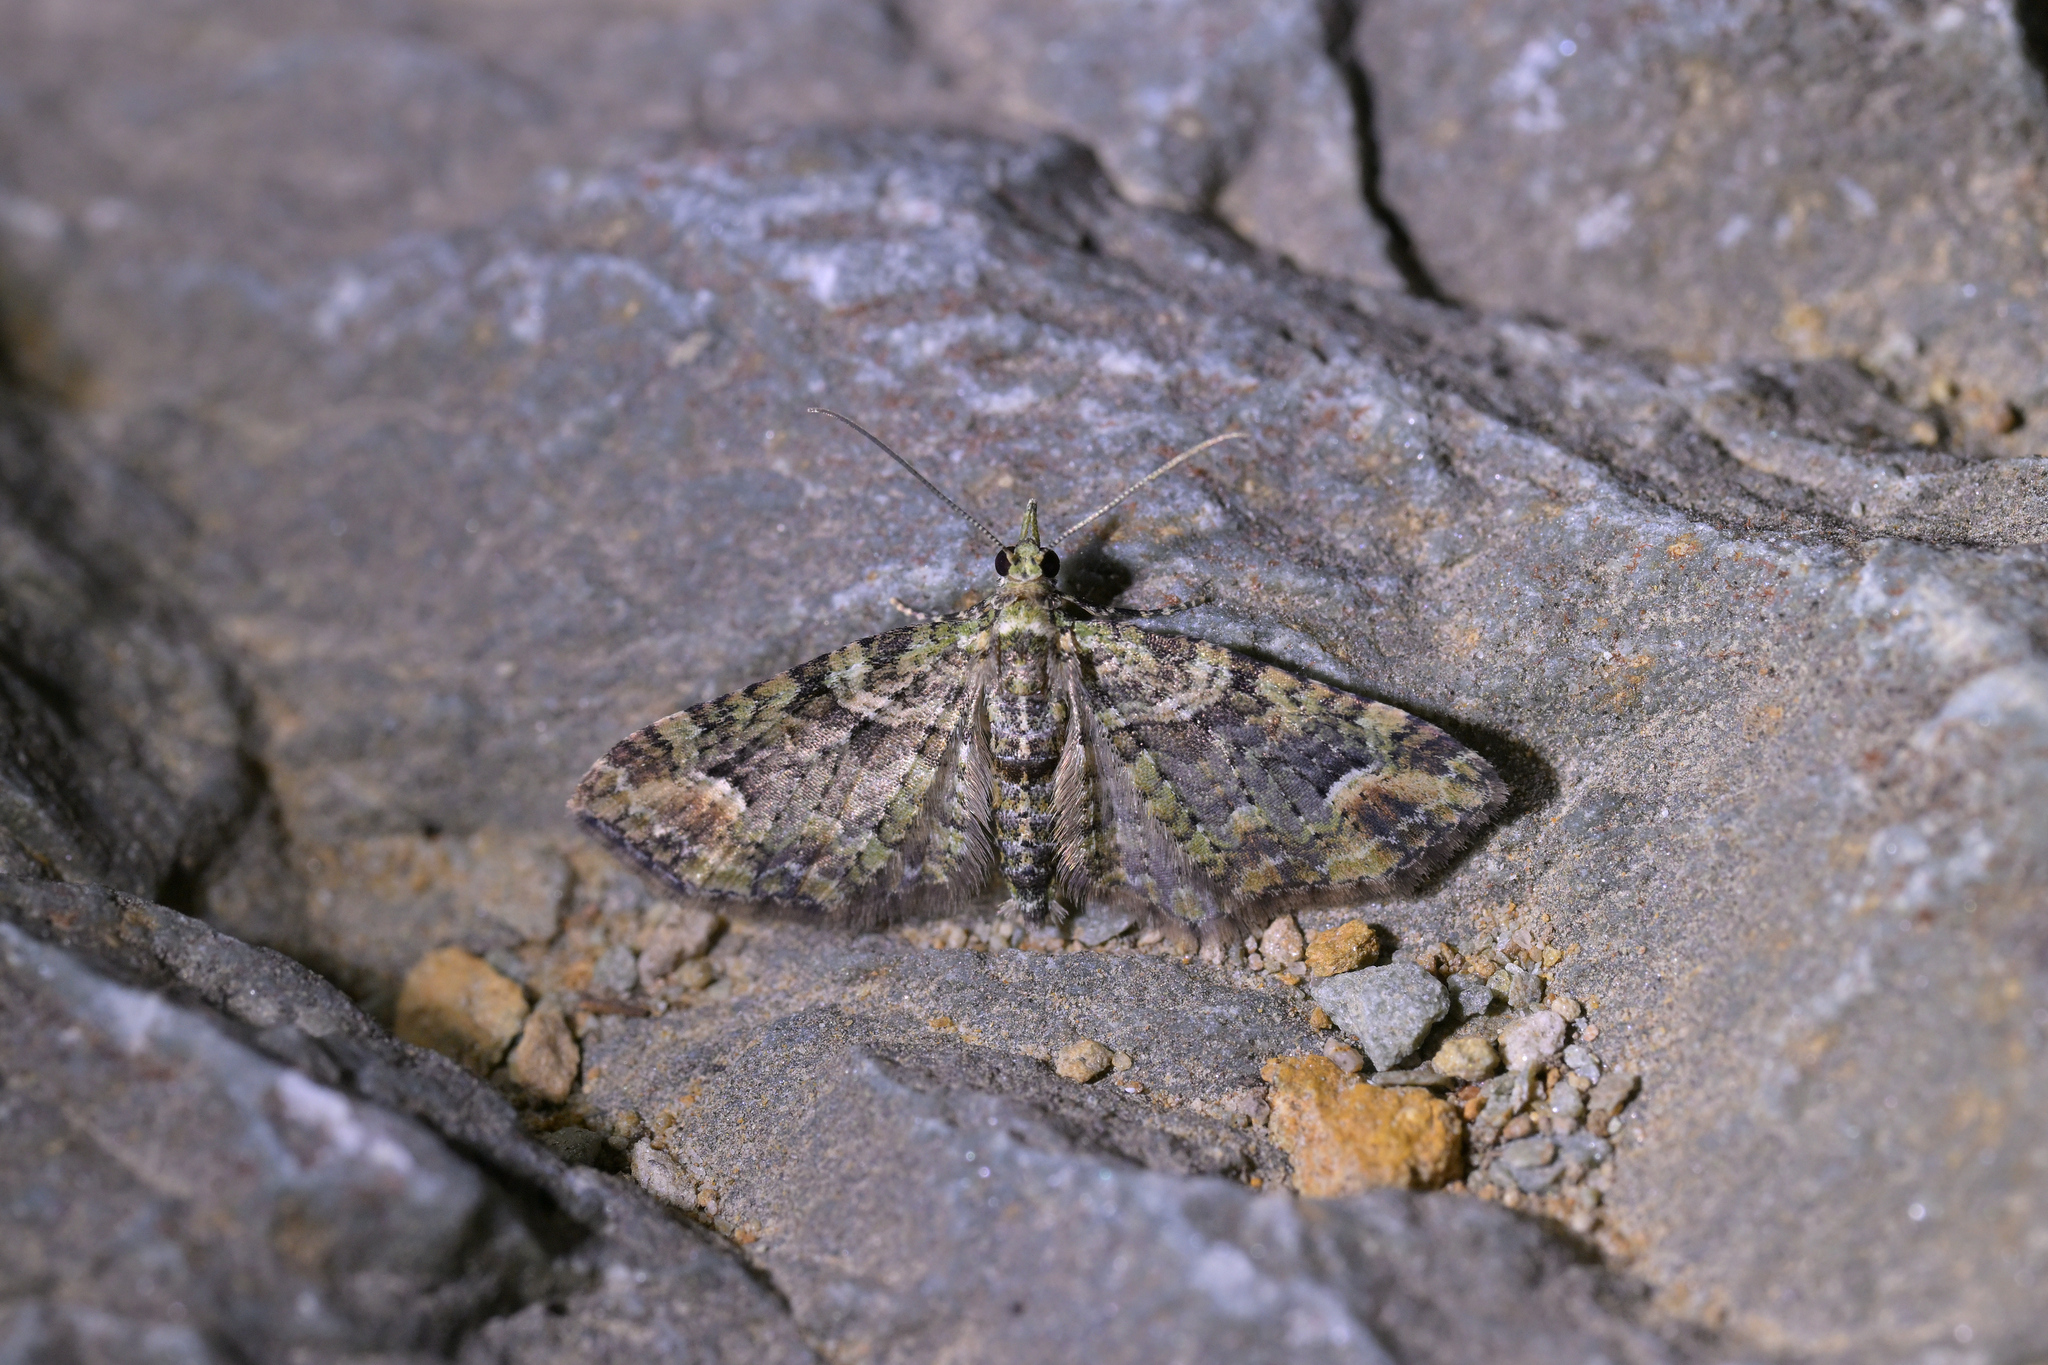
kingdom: Animalia
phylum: Arthropoda
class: Insecta
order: Lepidoptera
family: Geometridae
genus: Idaea
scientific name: Idaea mutanda
